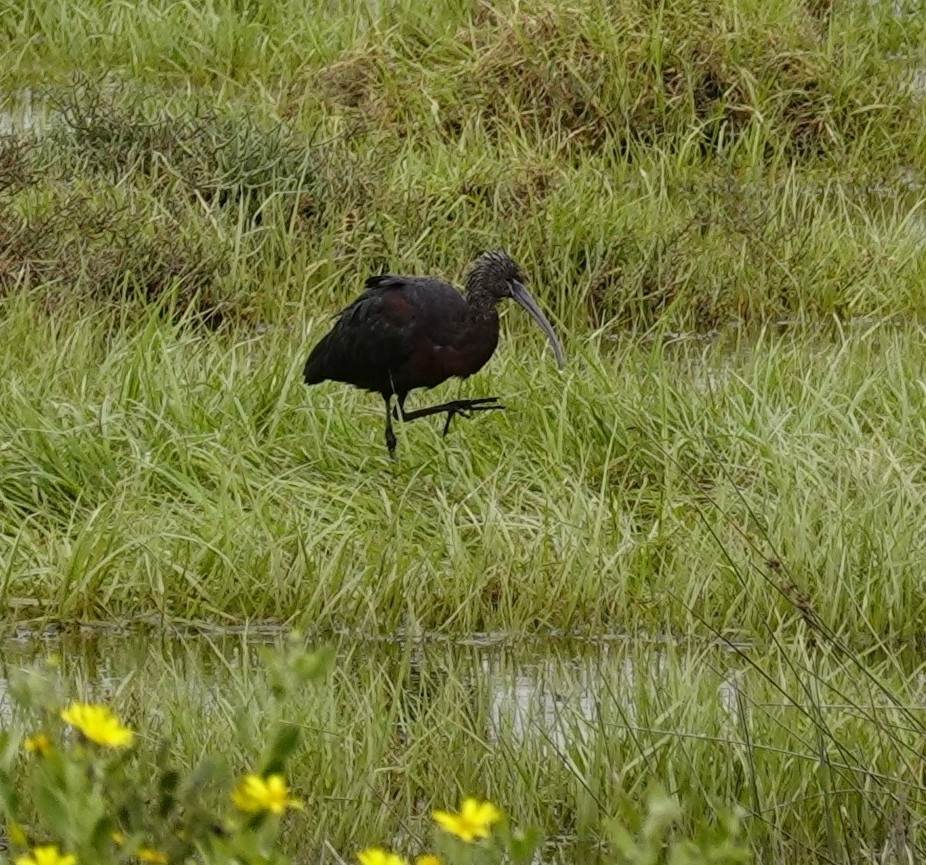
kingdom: Animalia
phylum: Chordata
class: Aves
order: Pelecaniformes
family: Threskiornithidae
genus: Plegadis
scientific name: Plegadis falcinellus
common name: Glossy ibis
